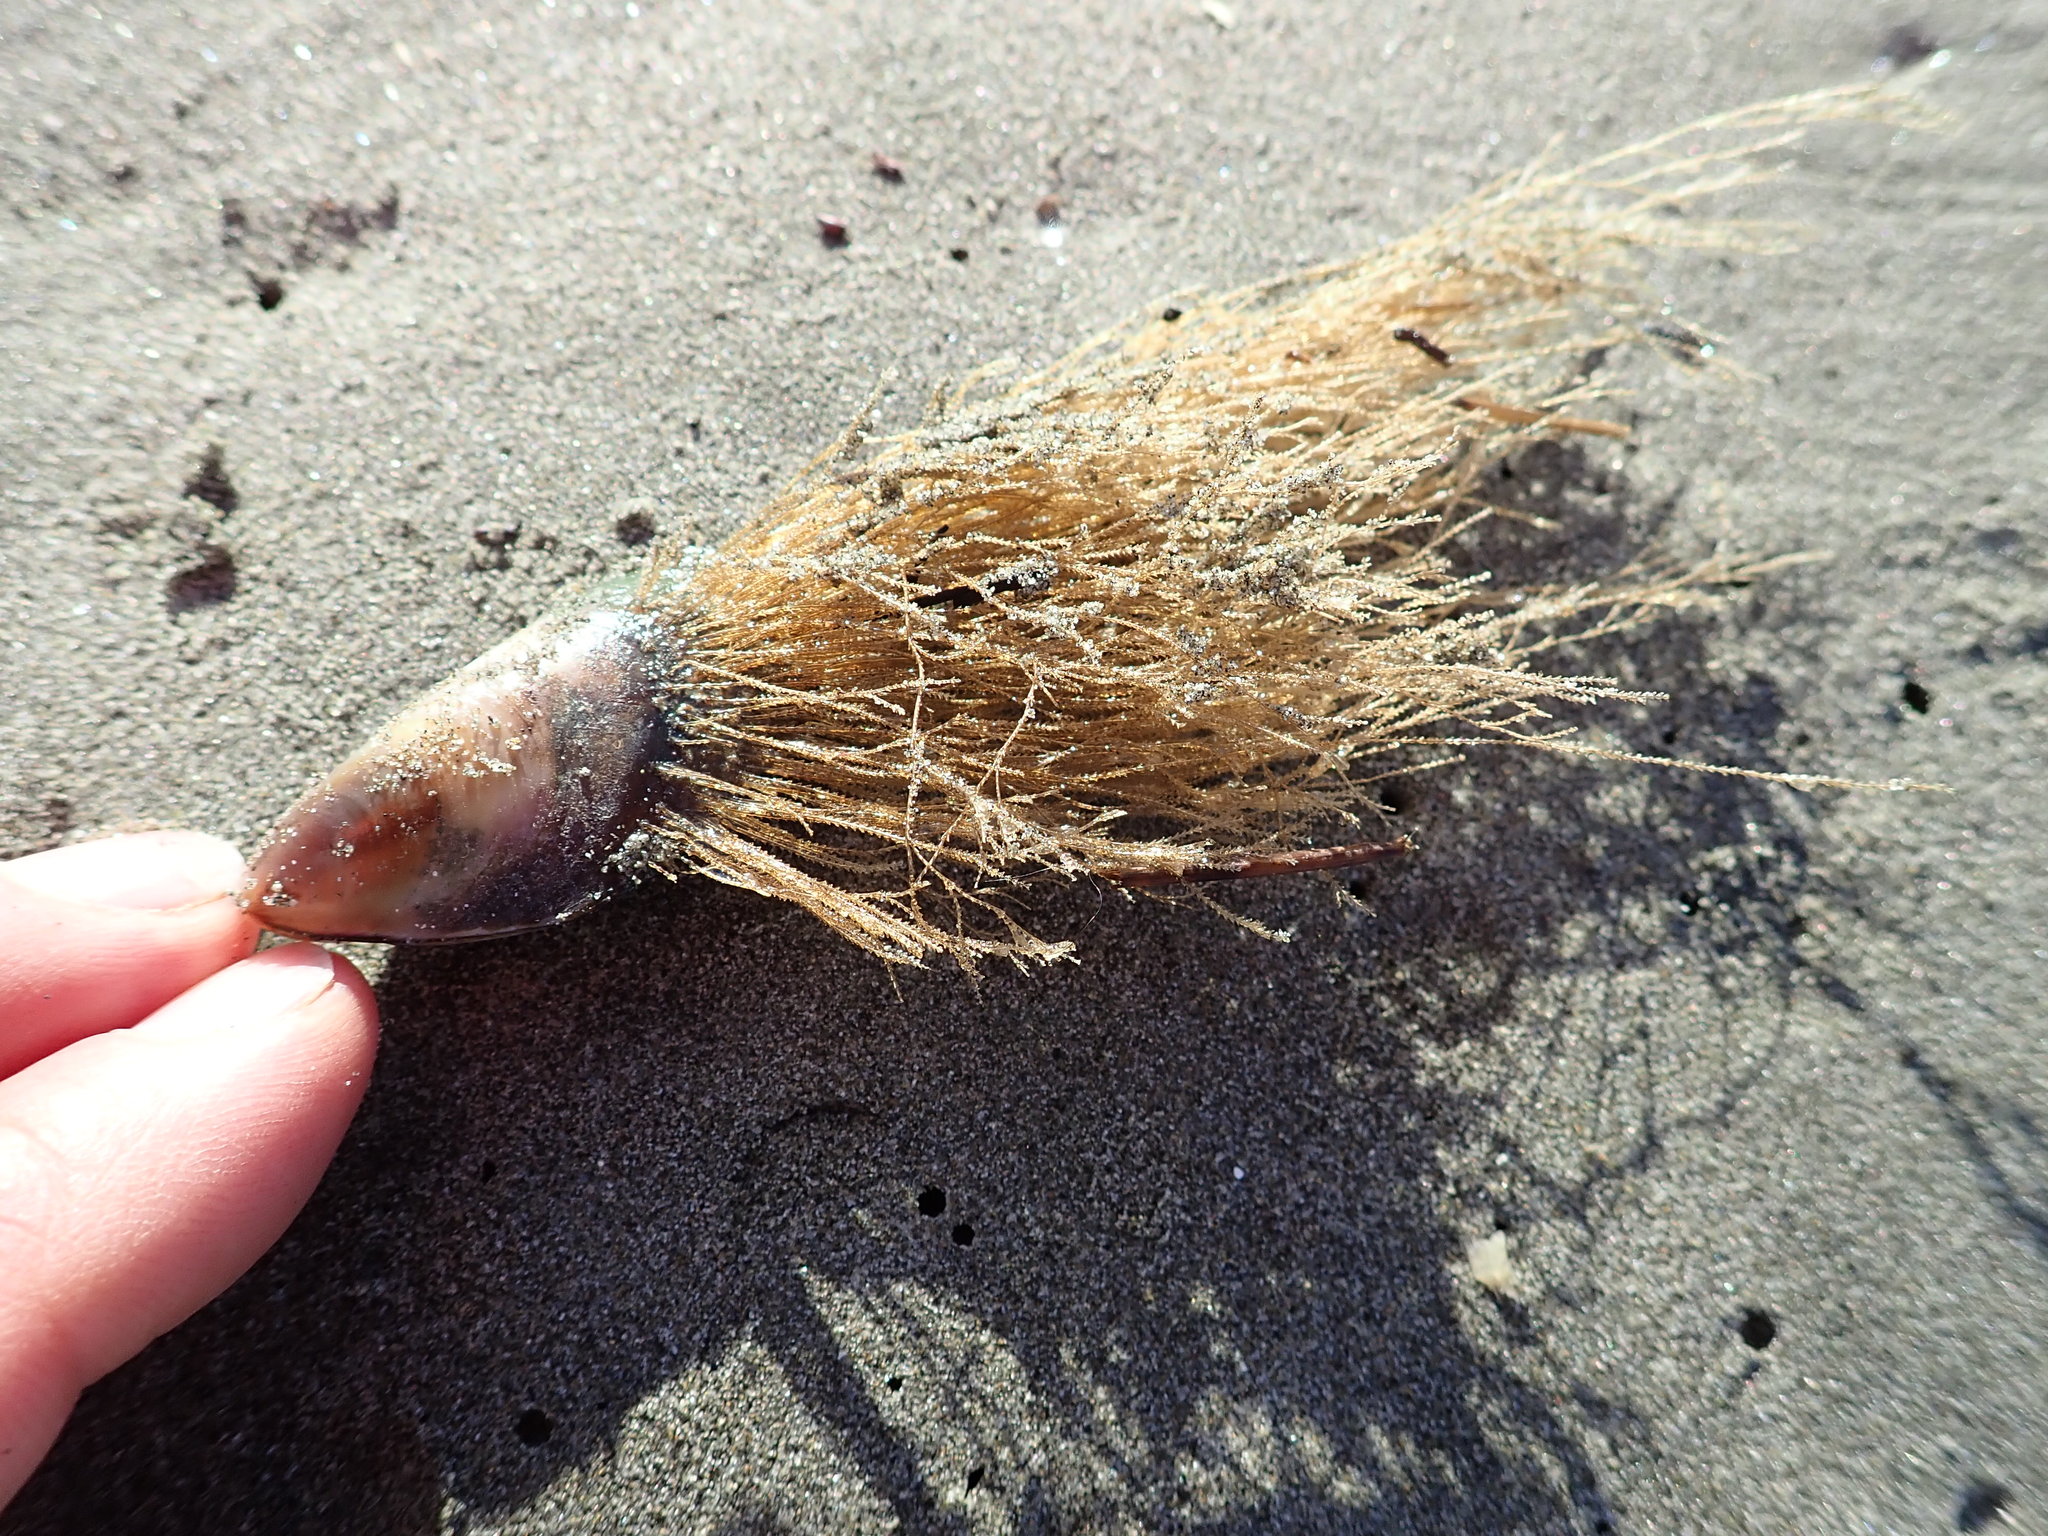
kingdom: Animalia
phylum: Cnidaria
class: Hydrozoa
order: Leptothecata
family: Sertulariidae
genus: Amphisbetia
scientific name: Amphisbetia bispinosa
